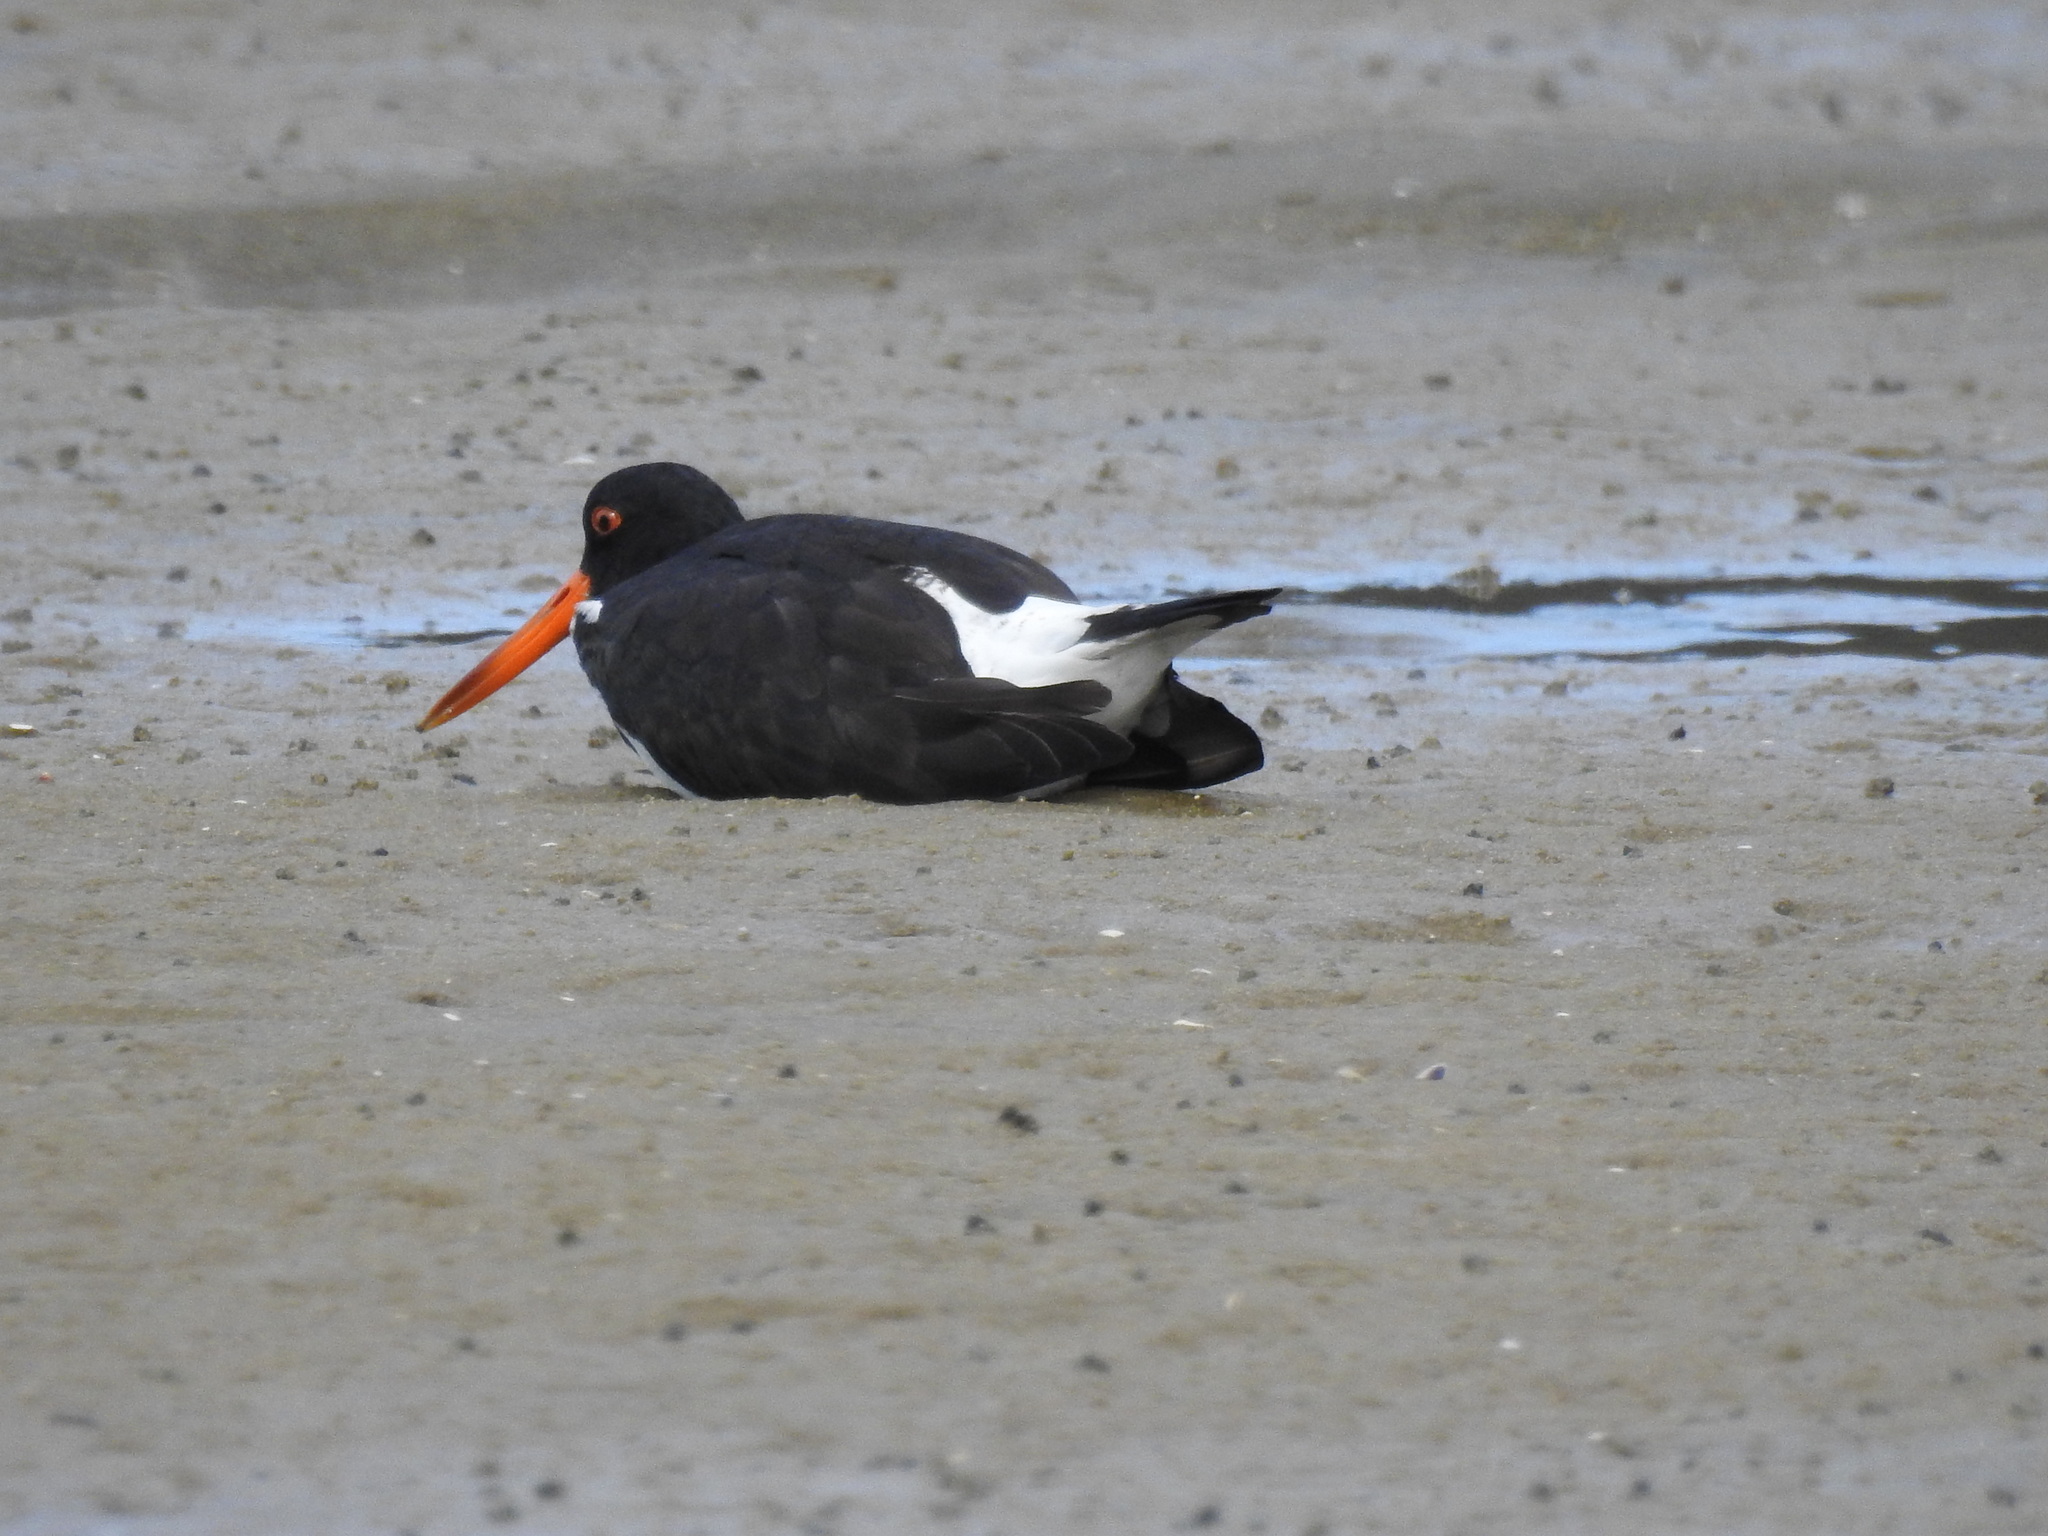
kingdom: Animalia
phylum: Chordata
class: Aves
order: Charadriiformes
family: Haematopodidae
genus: Haematopus
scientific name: Haematopus finschi
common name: South island oystercatcher
